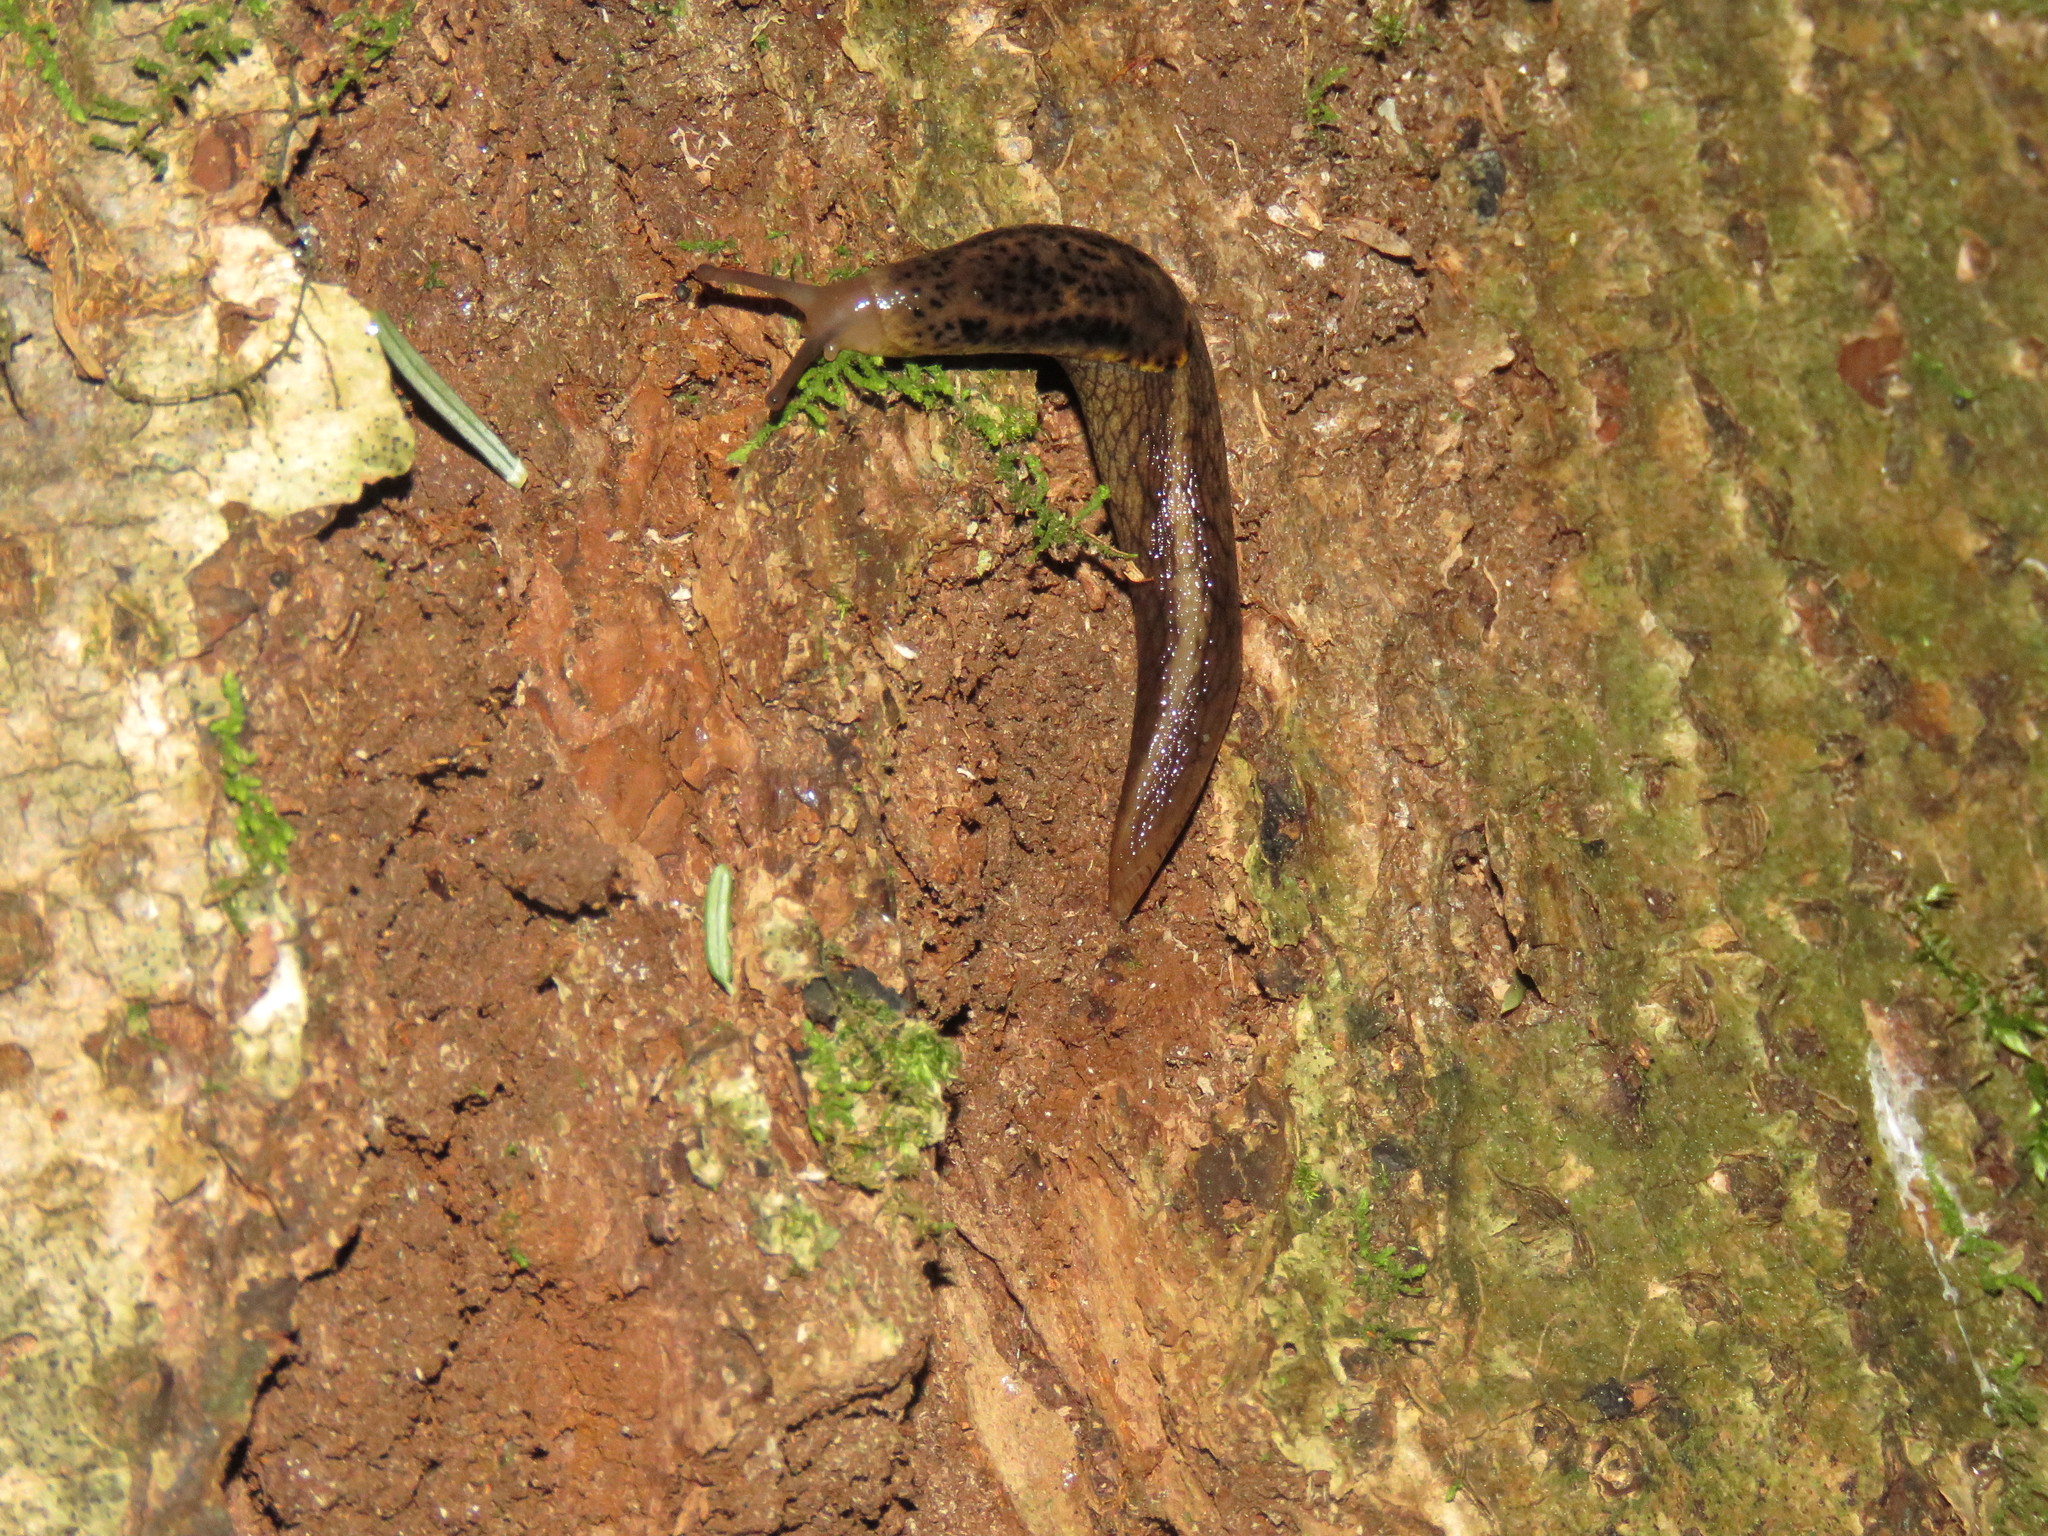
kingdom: Animalia
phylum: Mollusca
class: Gastropoda
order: Stylommatophora
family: Ariolimacidae
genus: Prophysaon
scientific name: Prophysaon andersonii
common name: Reticulate taildropper
